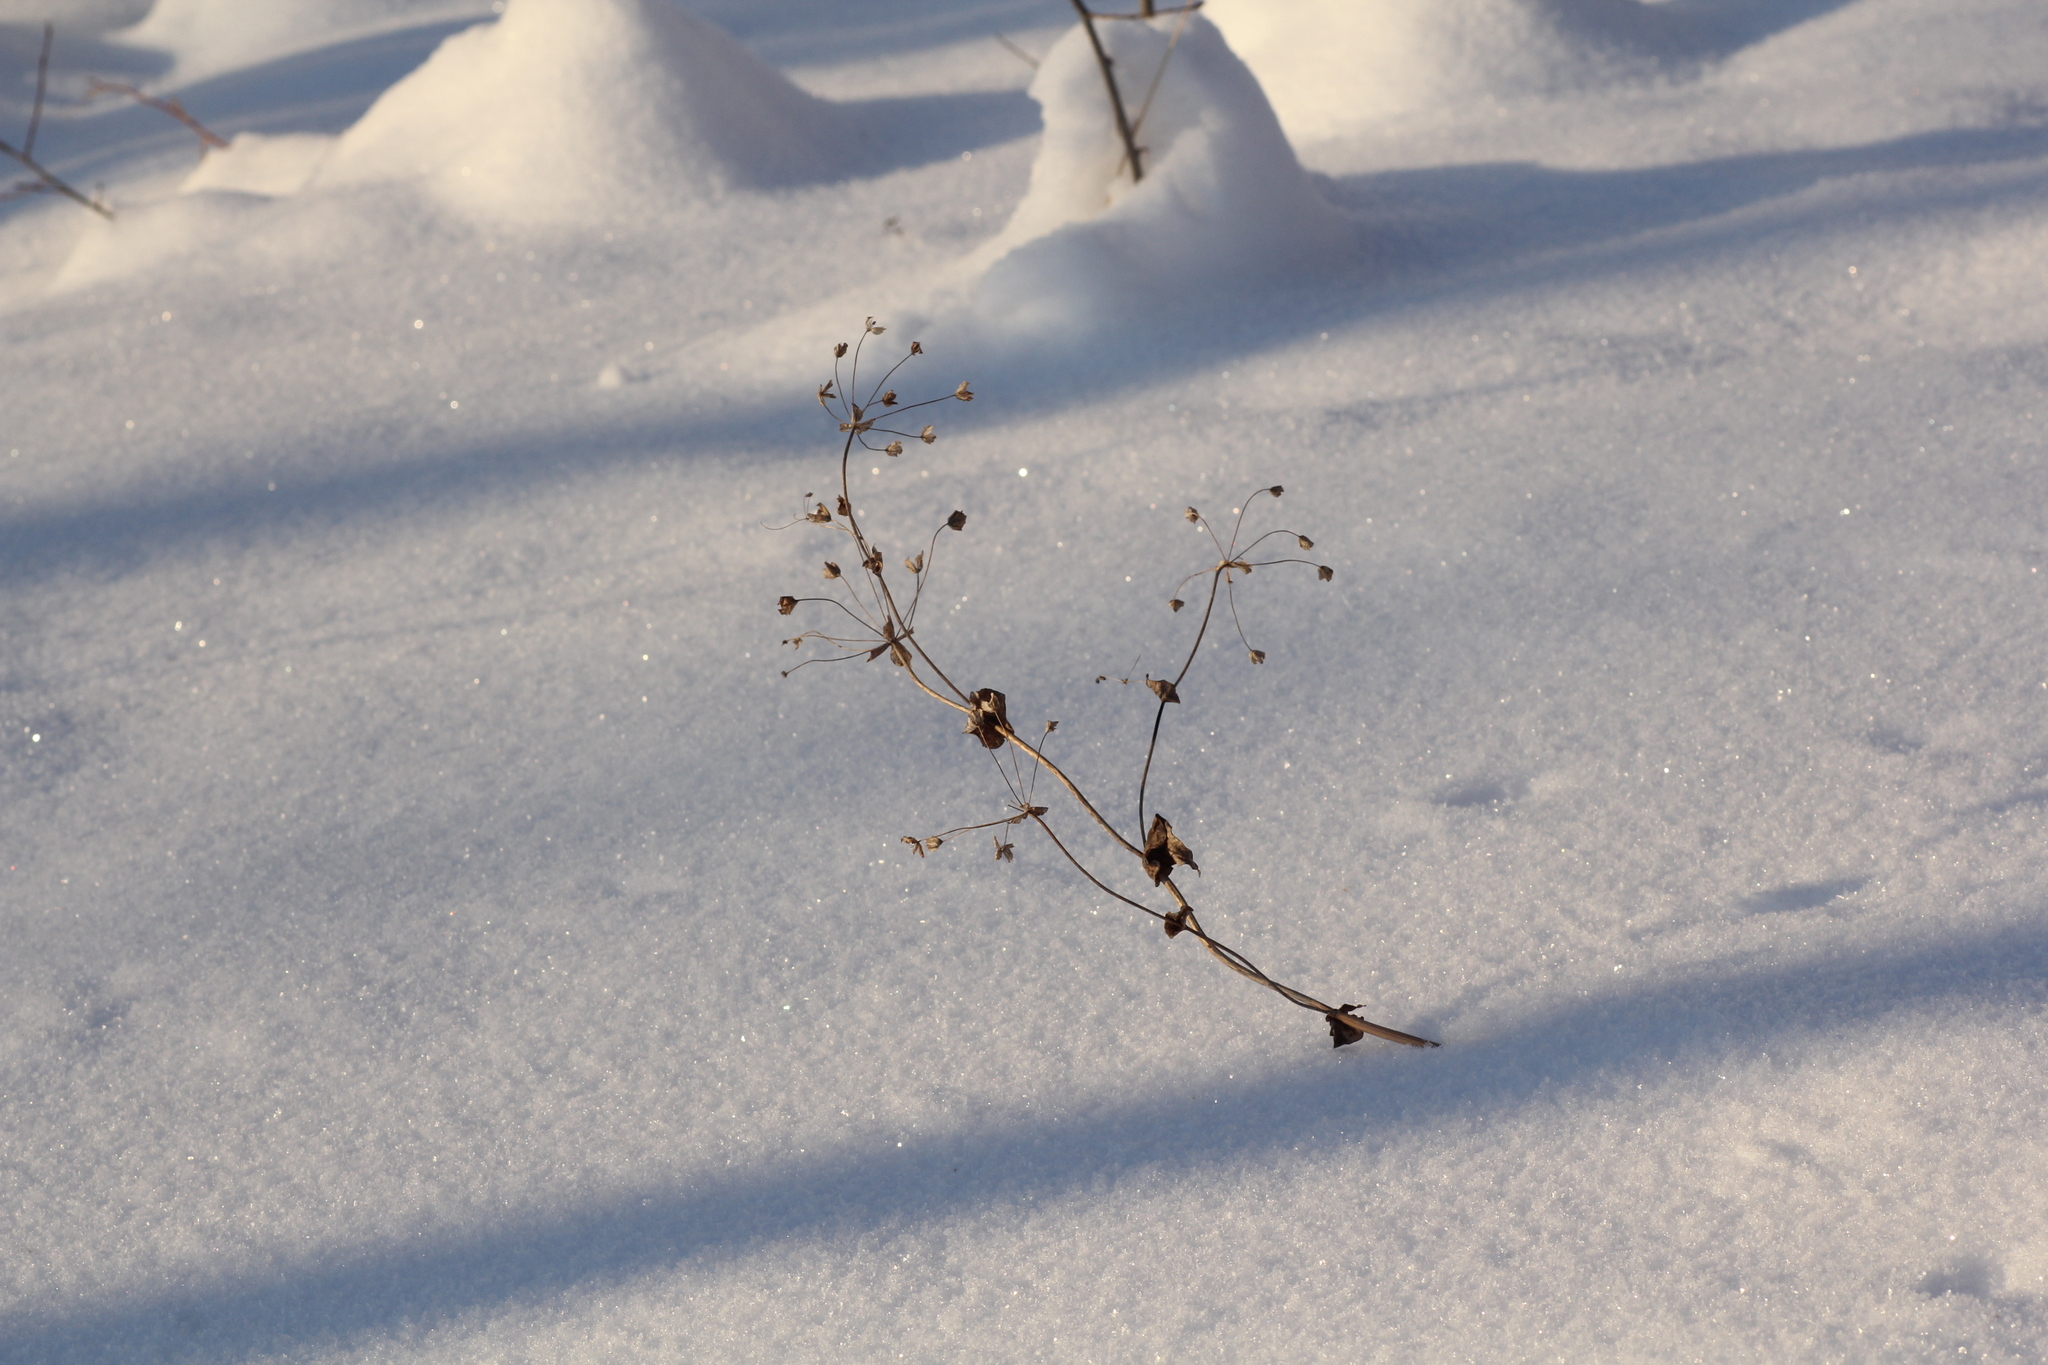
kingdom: Plantae
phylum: Tracheophyta
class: Magnoliopsida
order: Apiales
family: Apiaceae
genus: Bupleurum
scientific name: Bupleurum aureum
